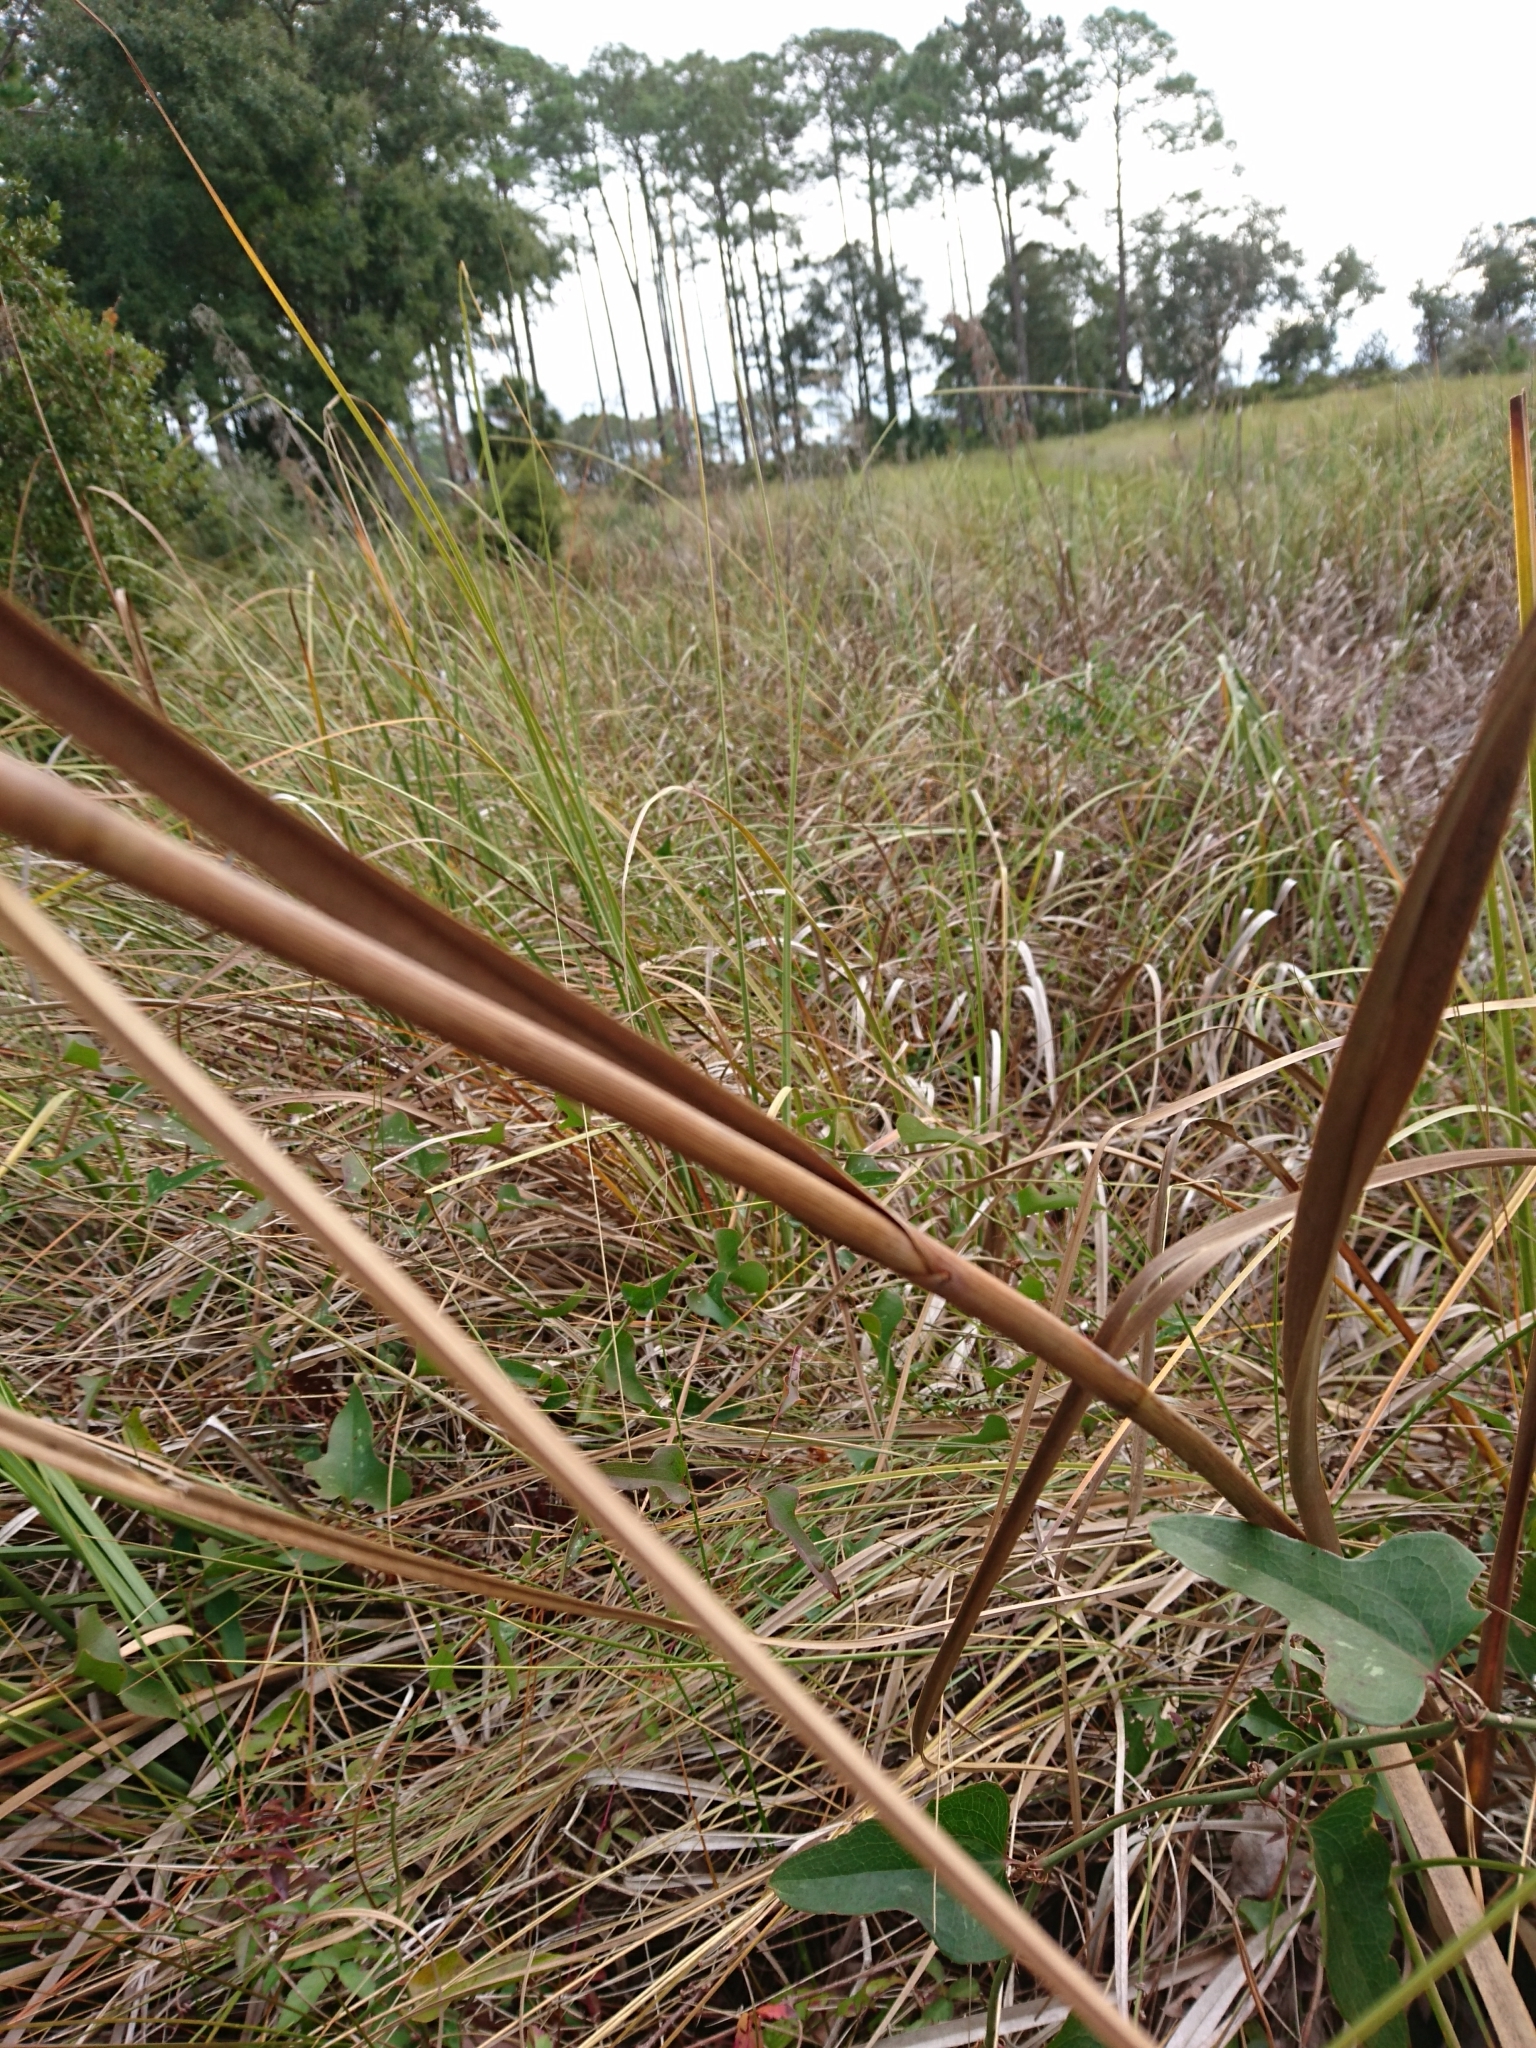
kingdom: Plantae
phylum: Tracheophyta
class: Liliopsida
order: Poales
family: Cyperaceae
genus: Cladium
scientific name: Cladium mariscus
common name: Great fen-sedge
